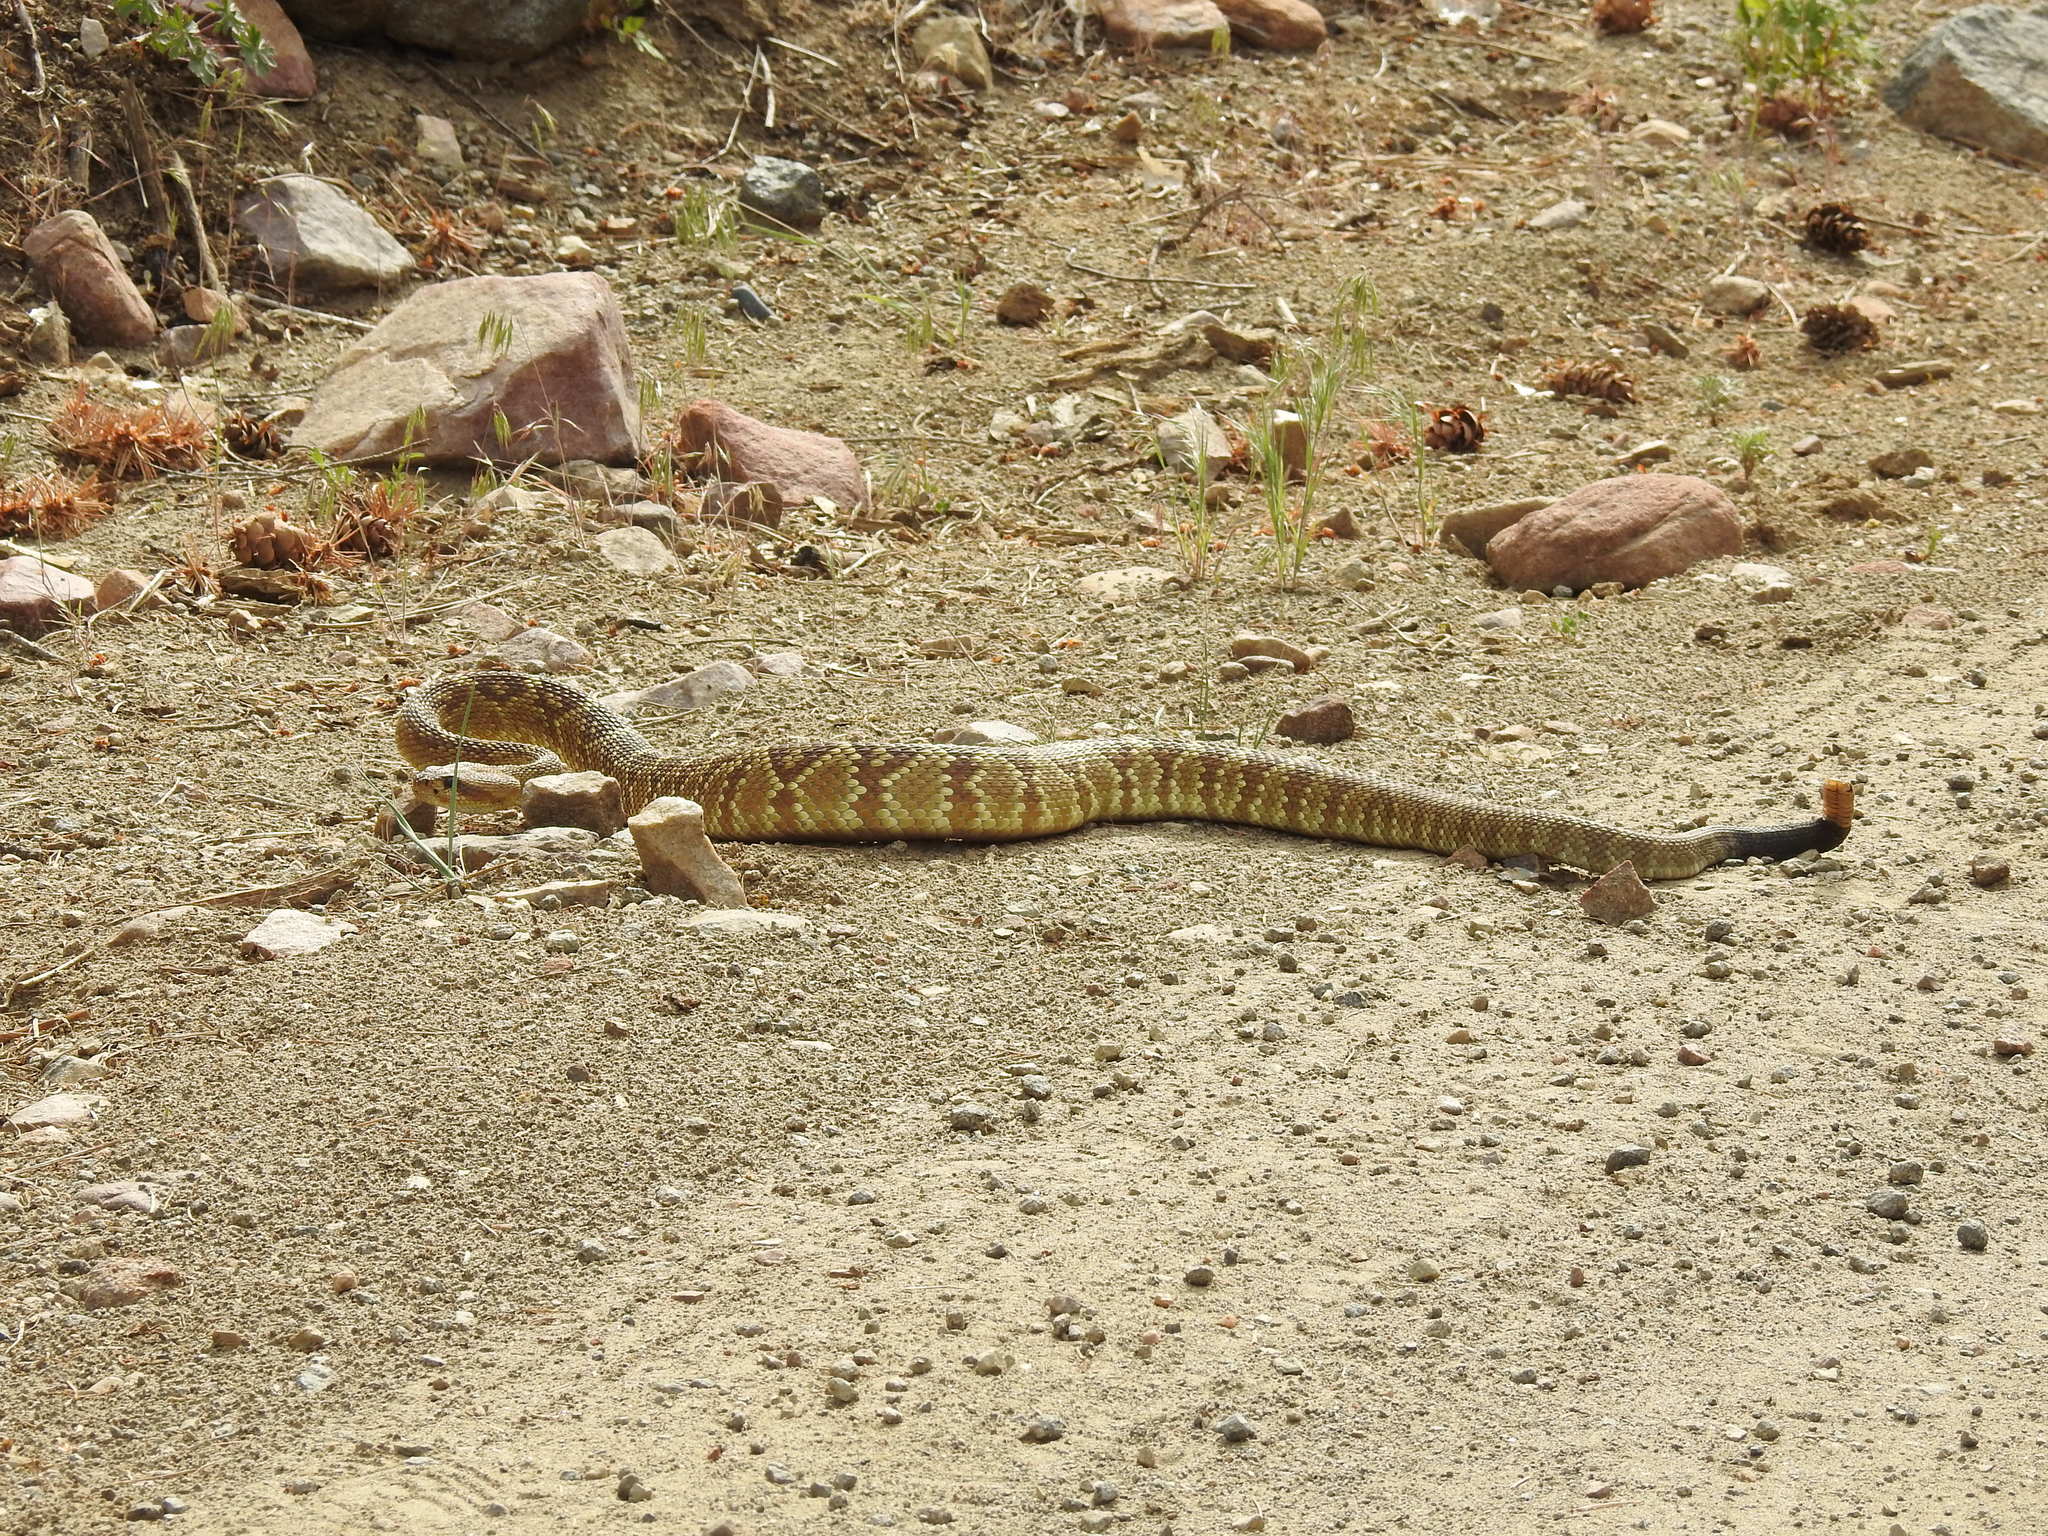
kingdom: Animalia
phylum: Chordata
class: Squamata
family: Viperidae
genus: Crotalus
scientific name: Crotalus molossus
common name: Black tailed rattlesnake
